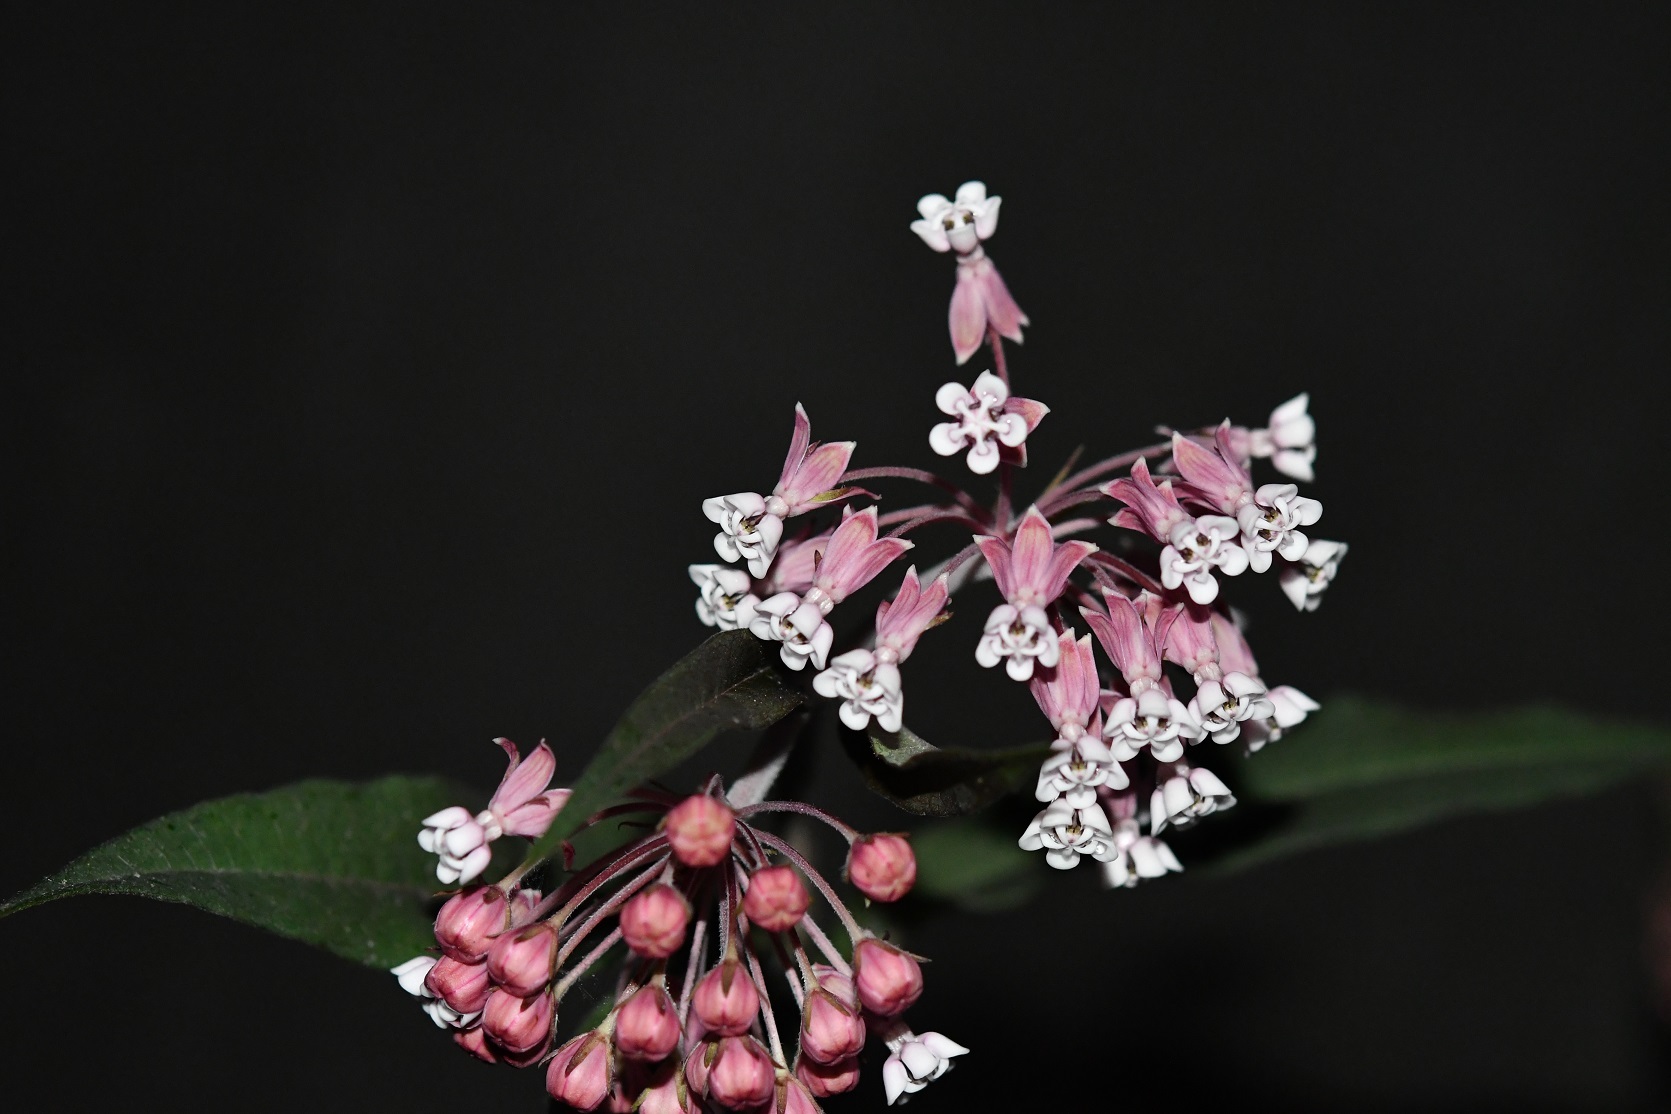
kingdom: Plantae
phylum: Tracheophyta
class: Magnoliopsida
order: Gentianales
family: Apocynaceae
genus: Asclepias
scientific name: Asclepias pellucida
